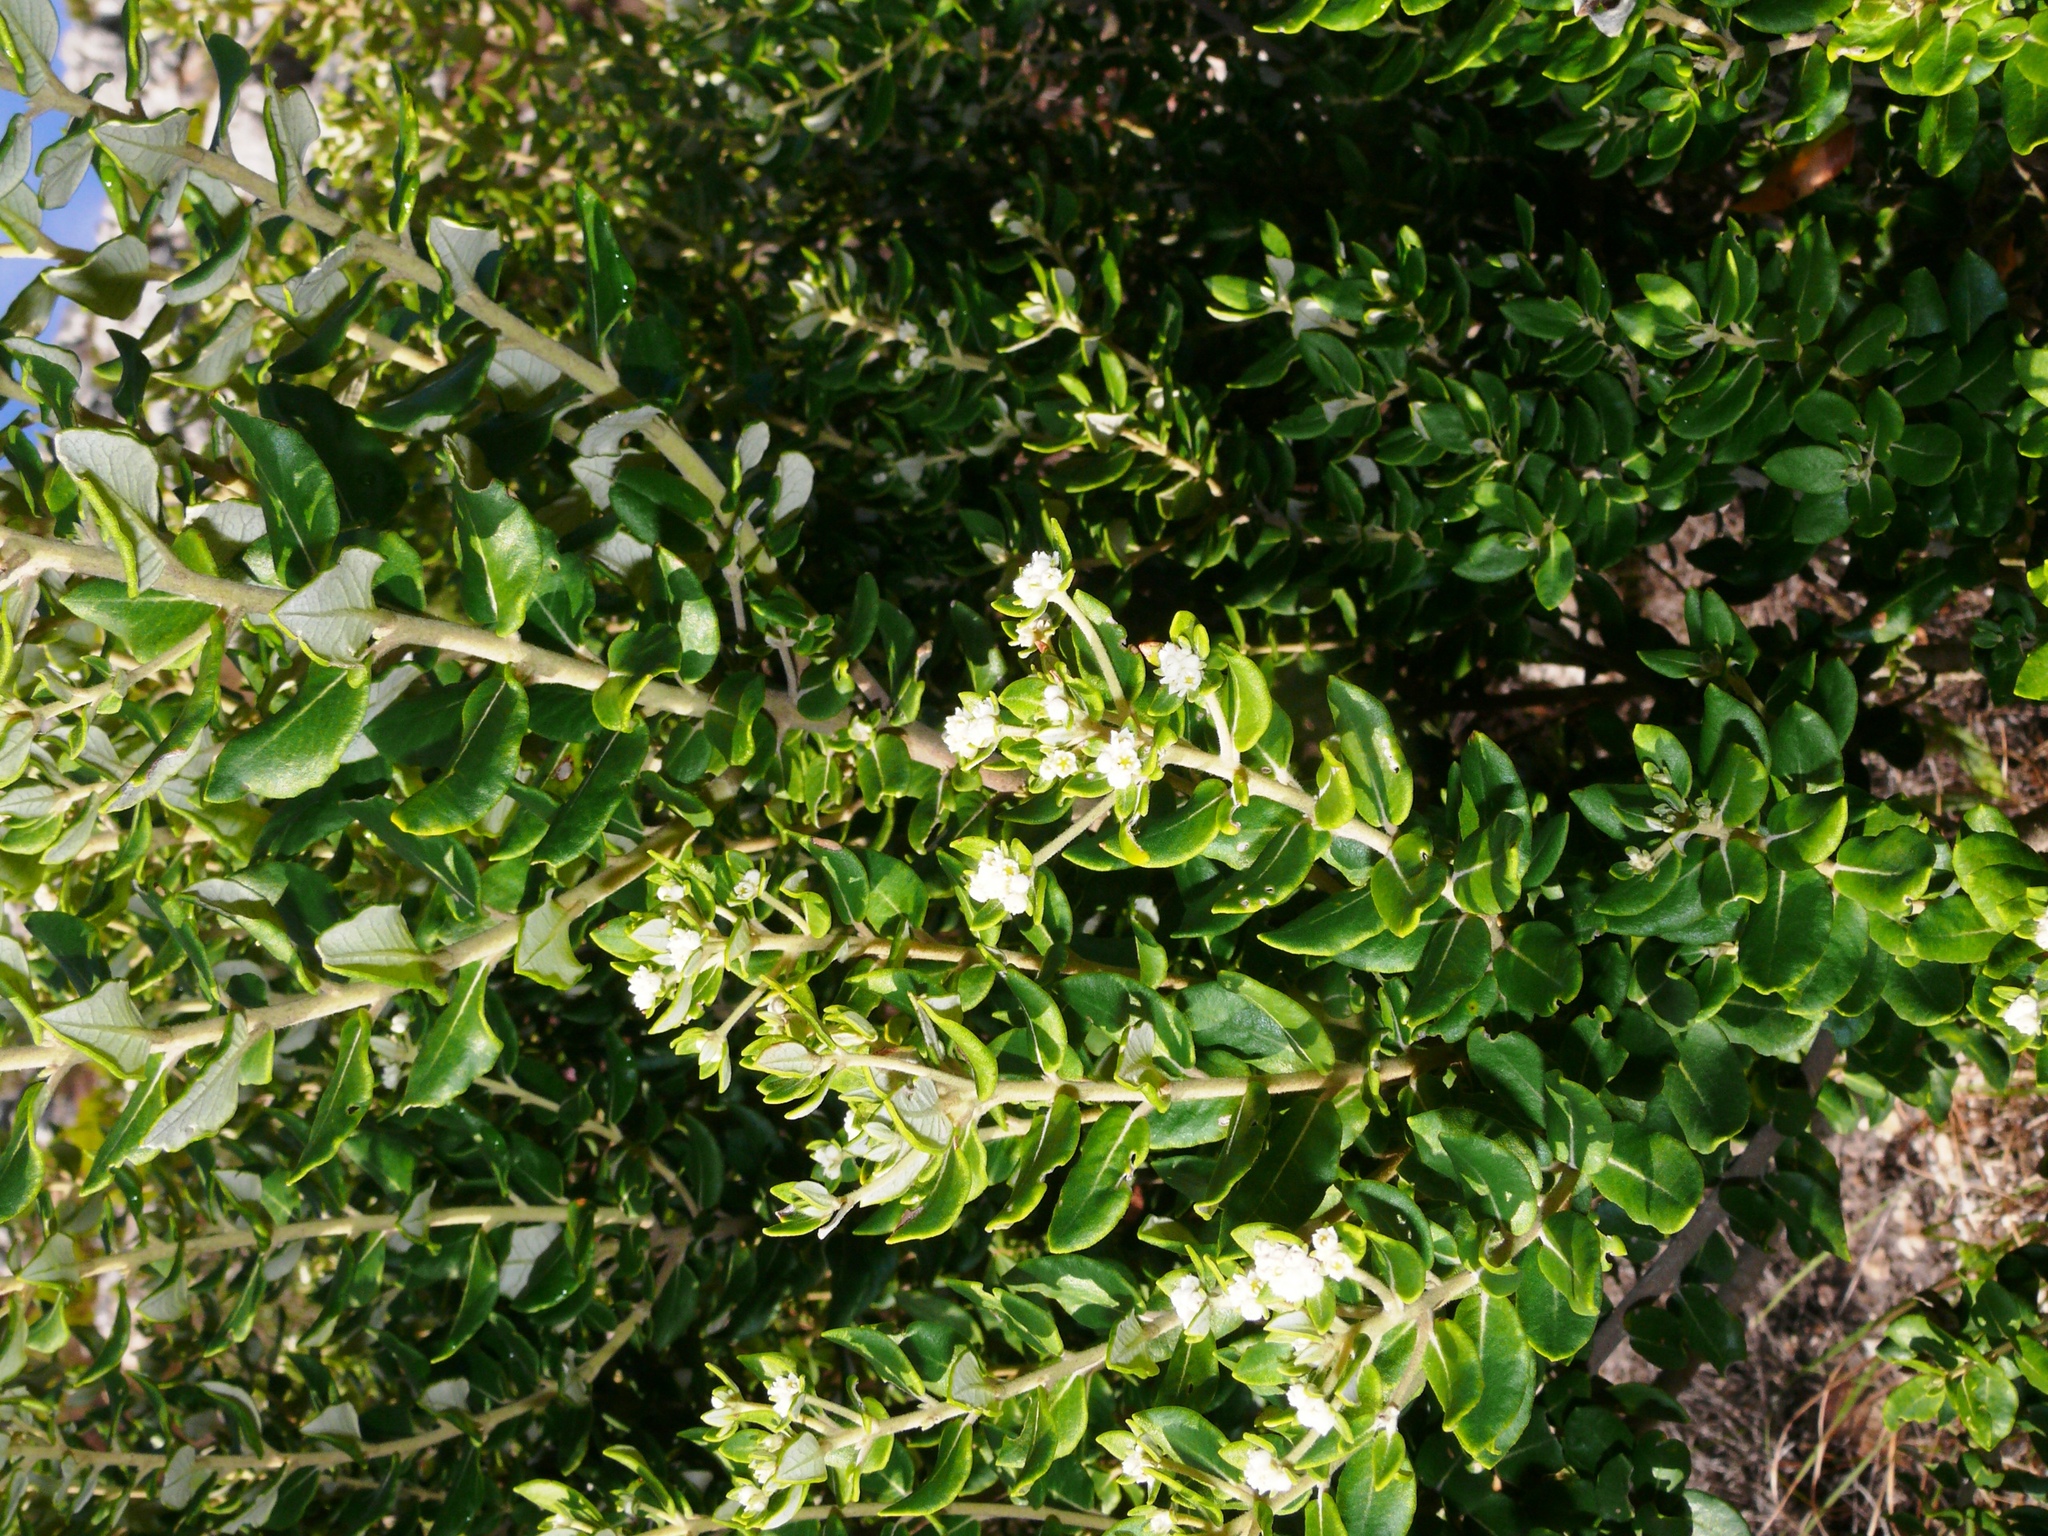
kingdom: Plantae
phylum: Tracheophyta
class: Magnoliopsida
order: Rosales
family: Rhamnaceae
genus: Phylica
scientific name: Phylica buxifolia
